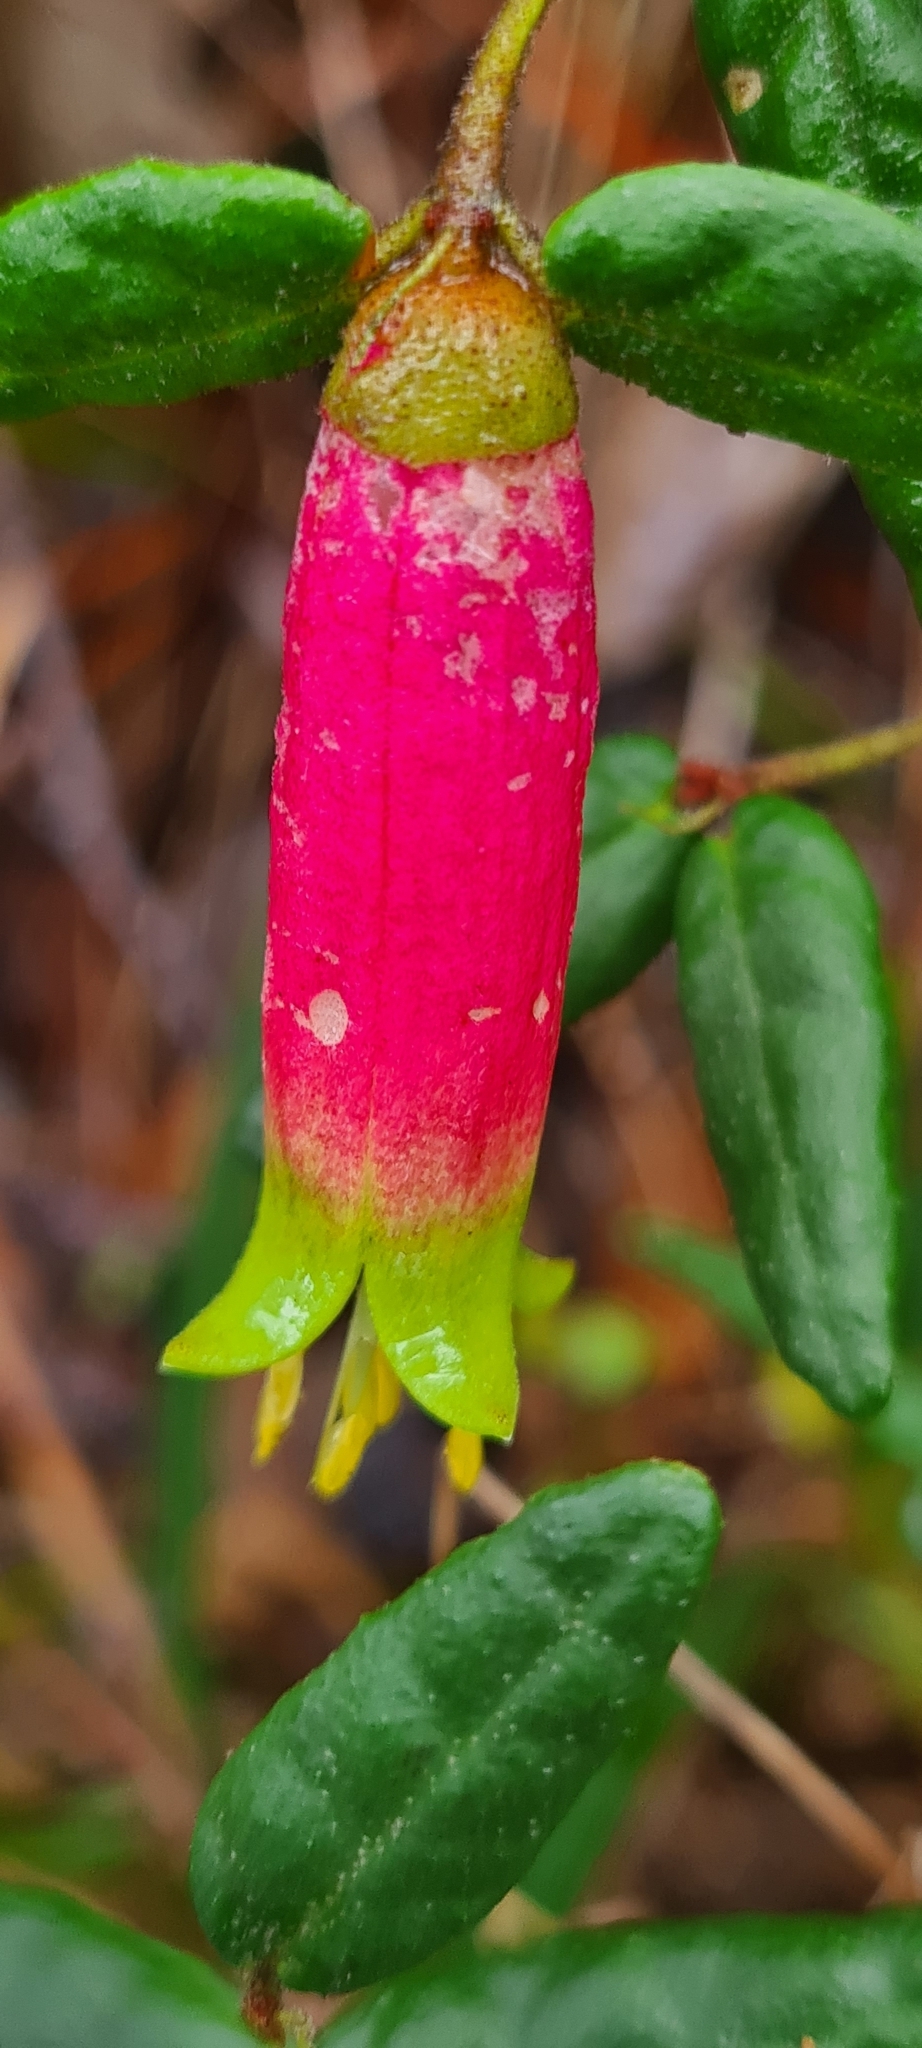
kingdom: Plantae
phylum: Tracheophyta
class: Magnoliopsida
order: Sapindales
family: Rutaceae
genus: Correa
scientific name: Correa reflexa
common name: Common correa
